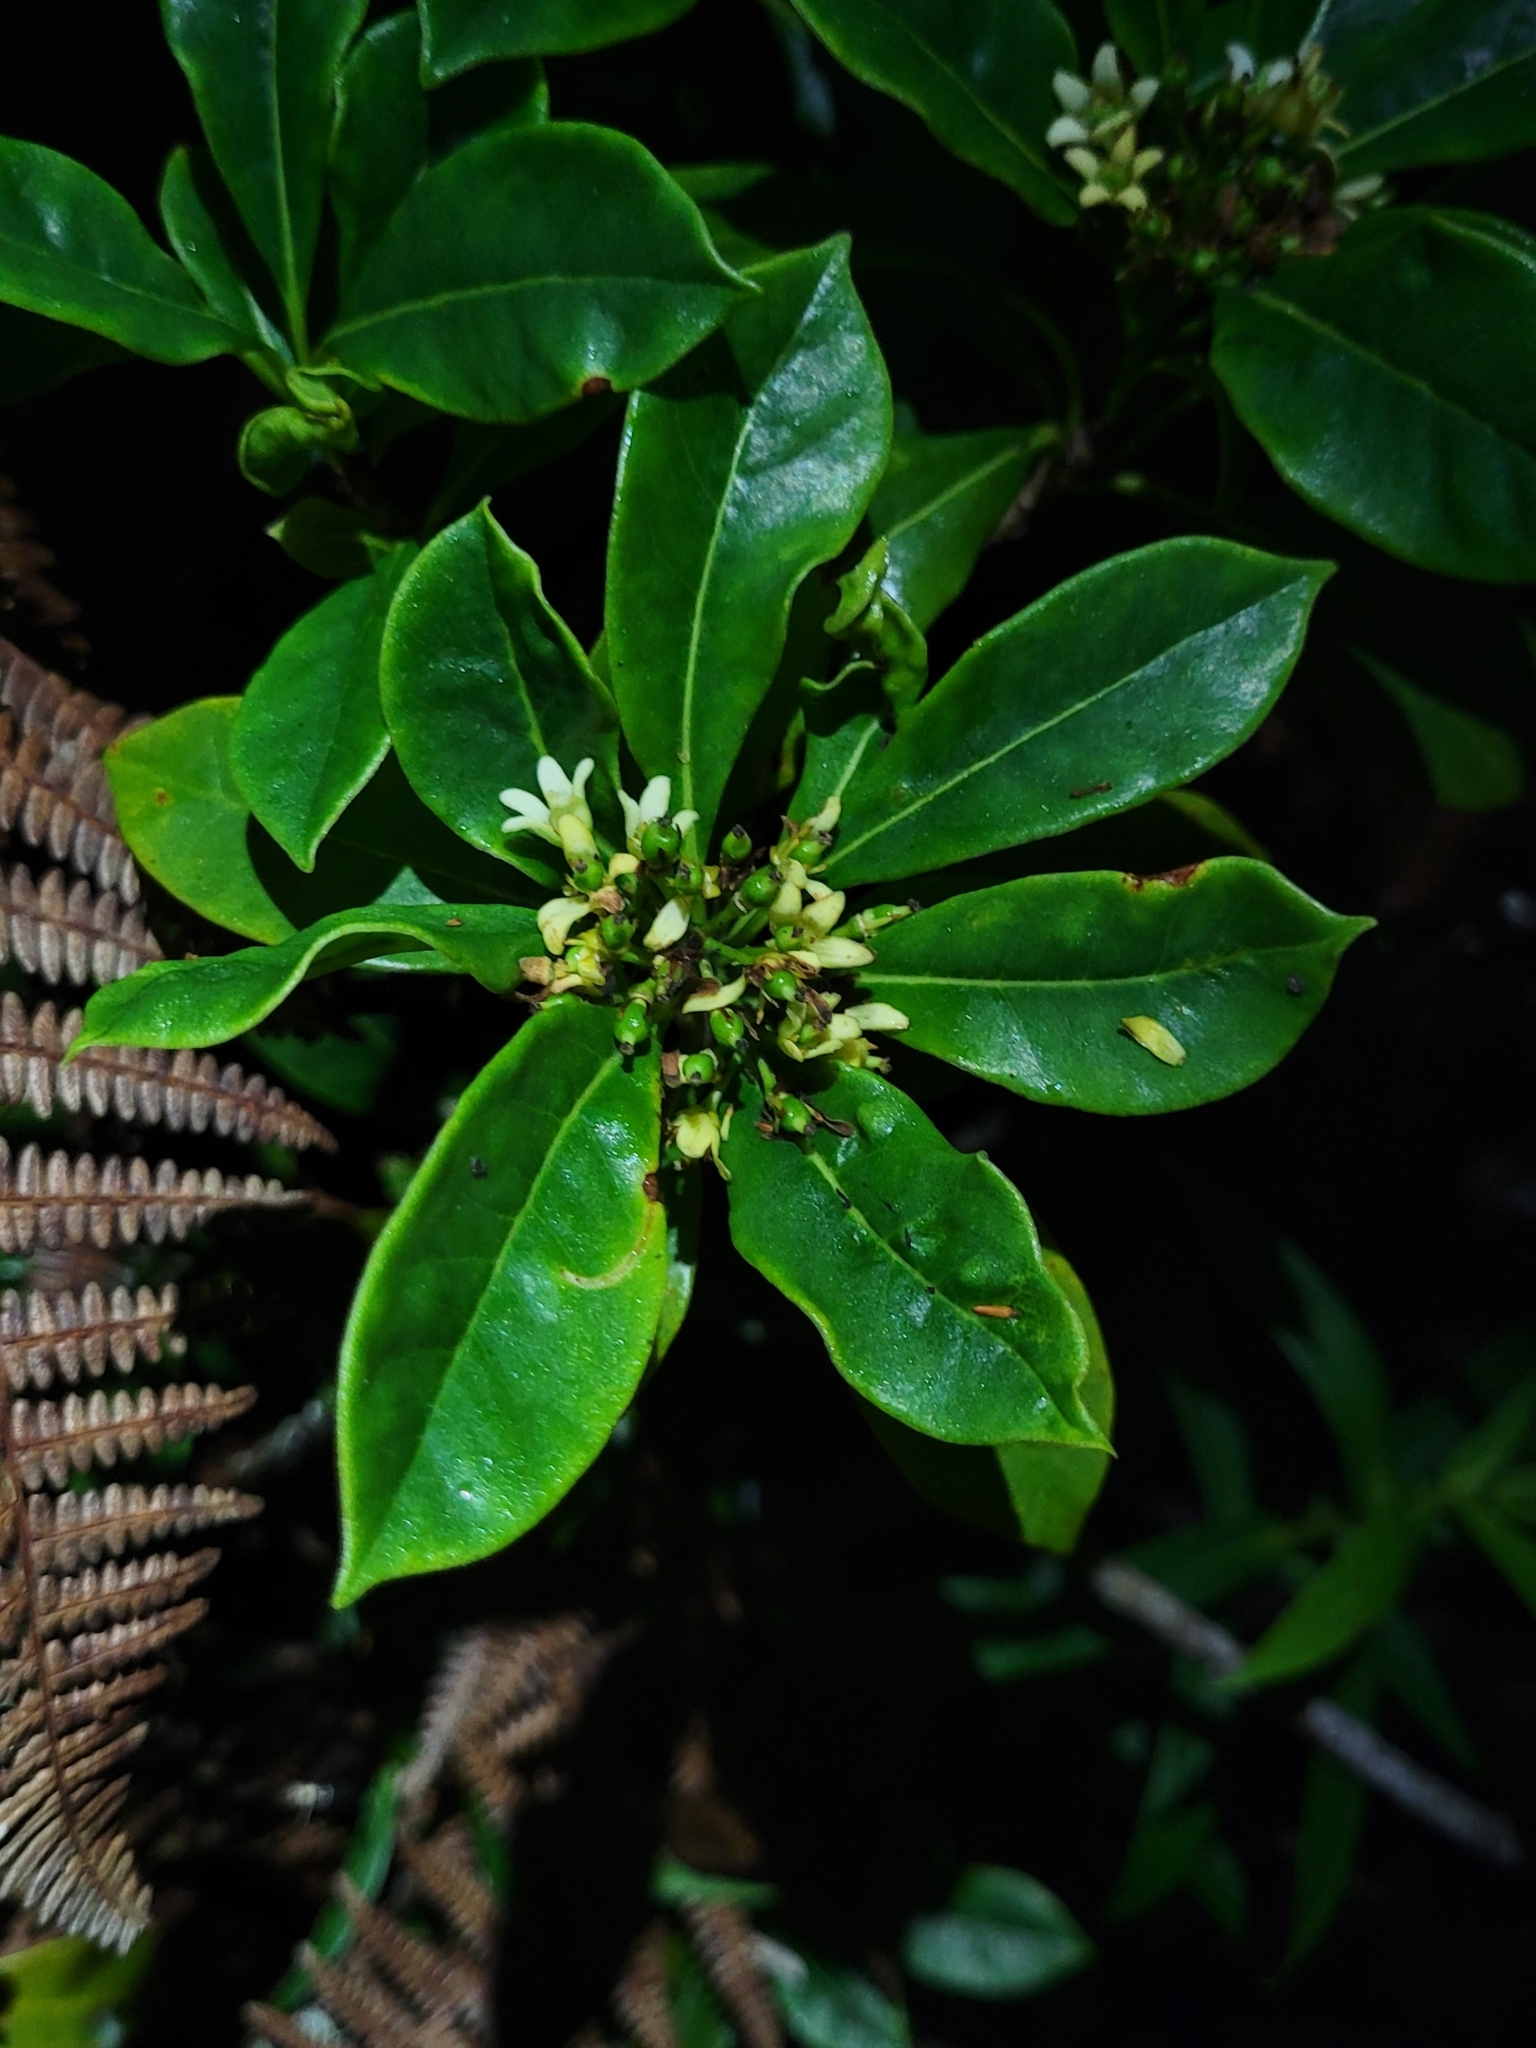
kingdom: Plantae
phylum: Tracheophyta
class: Magnoliopsida
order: Apiales
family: Pittosporaceae
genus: Pittosporum
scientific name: Pittosporum senacia
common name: Cheesewood
